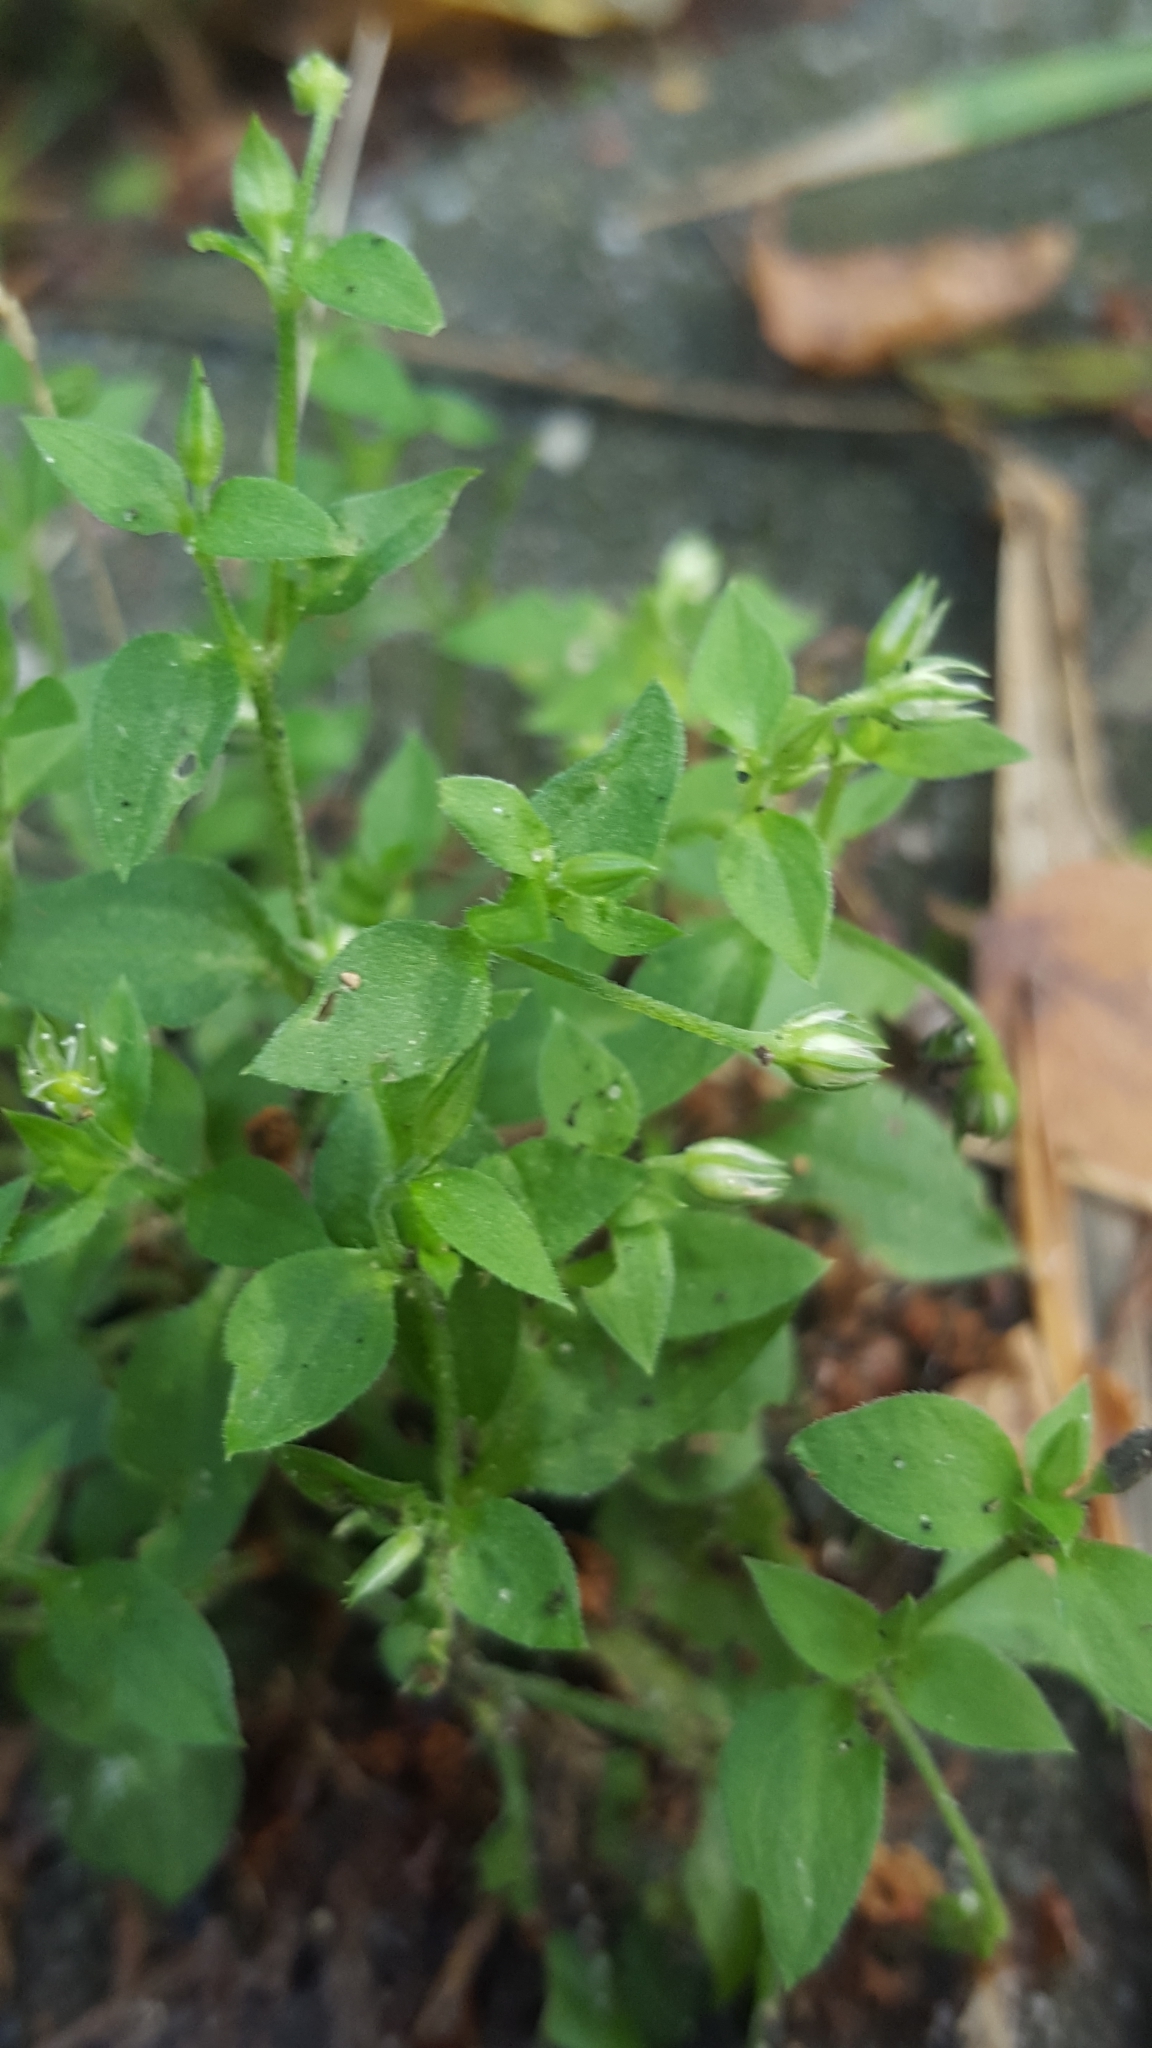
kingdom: Plantae
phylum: Tracheophyta
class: Magnoliopsida
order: Caryophyllales
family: Caryophyllaceae
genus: Moehringia
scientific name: Moehringia trinervia
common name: Three-nerved sandwort
